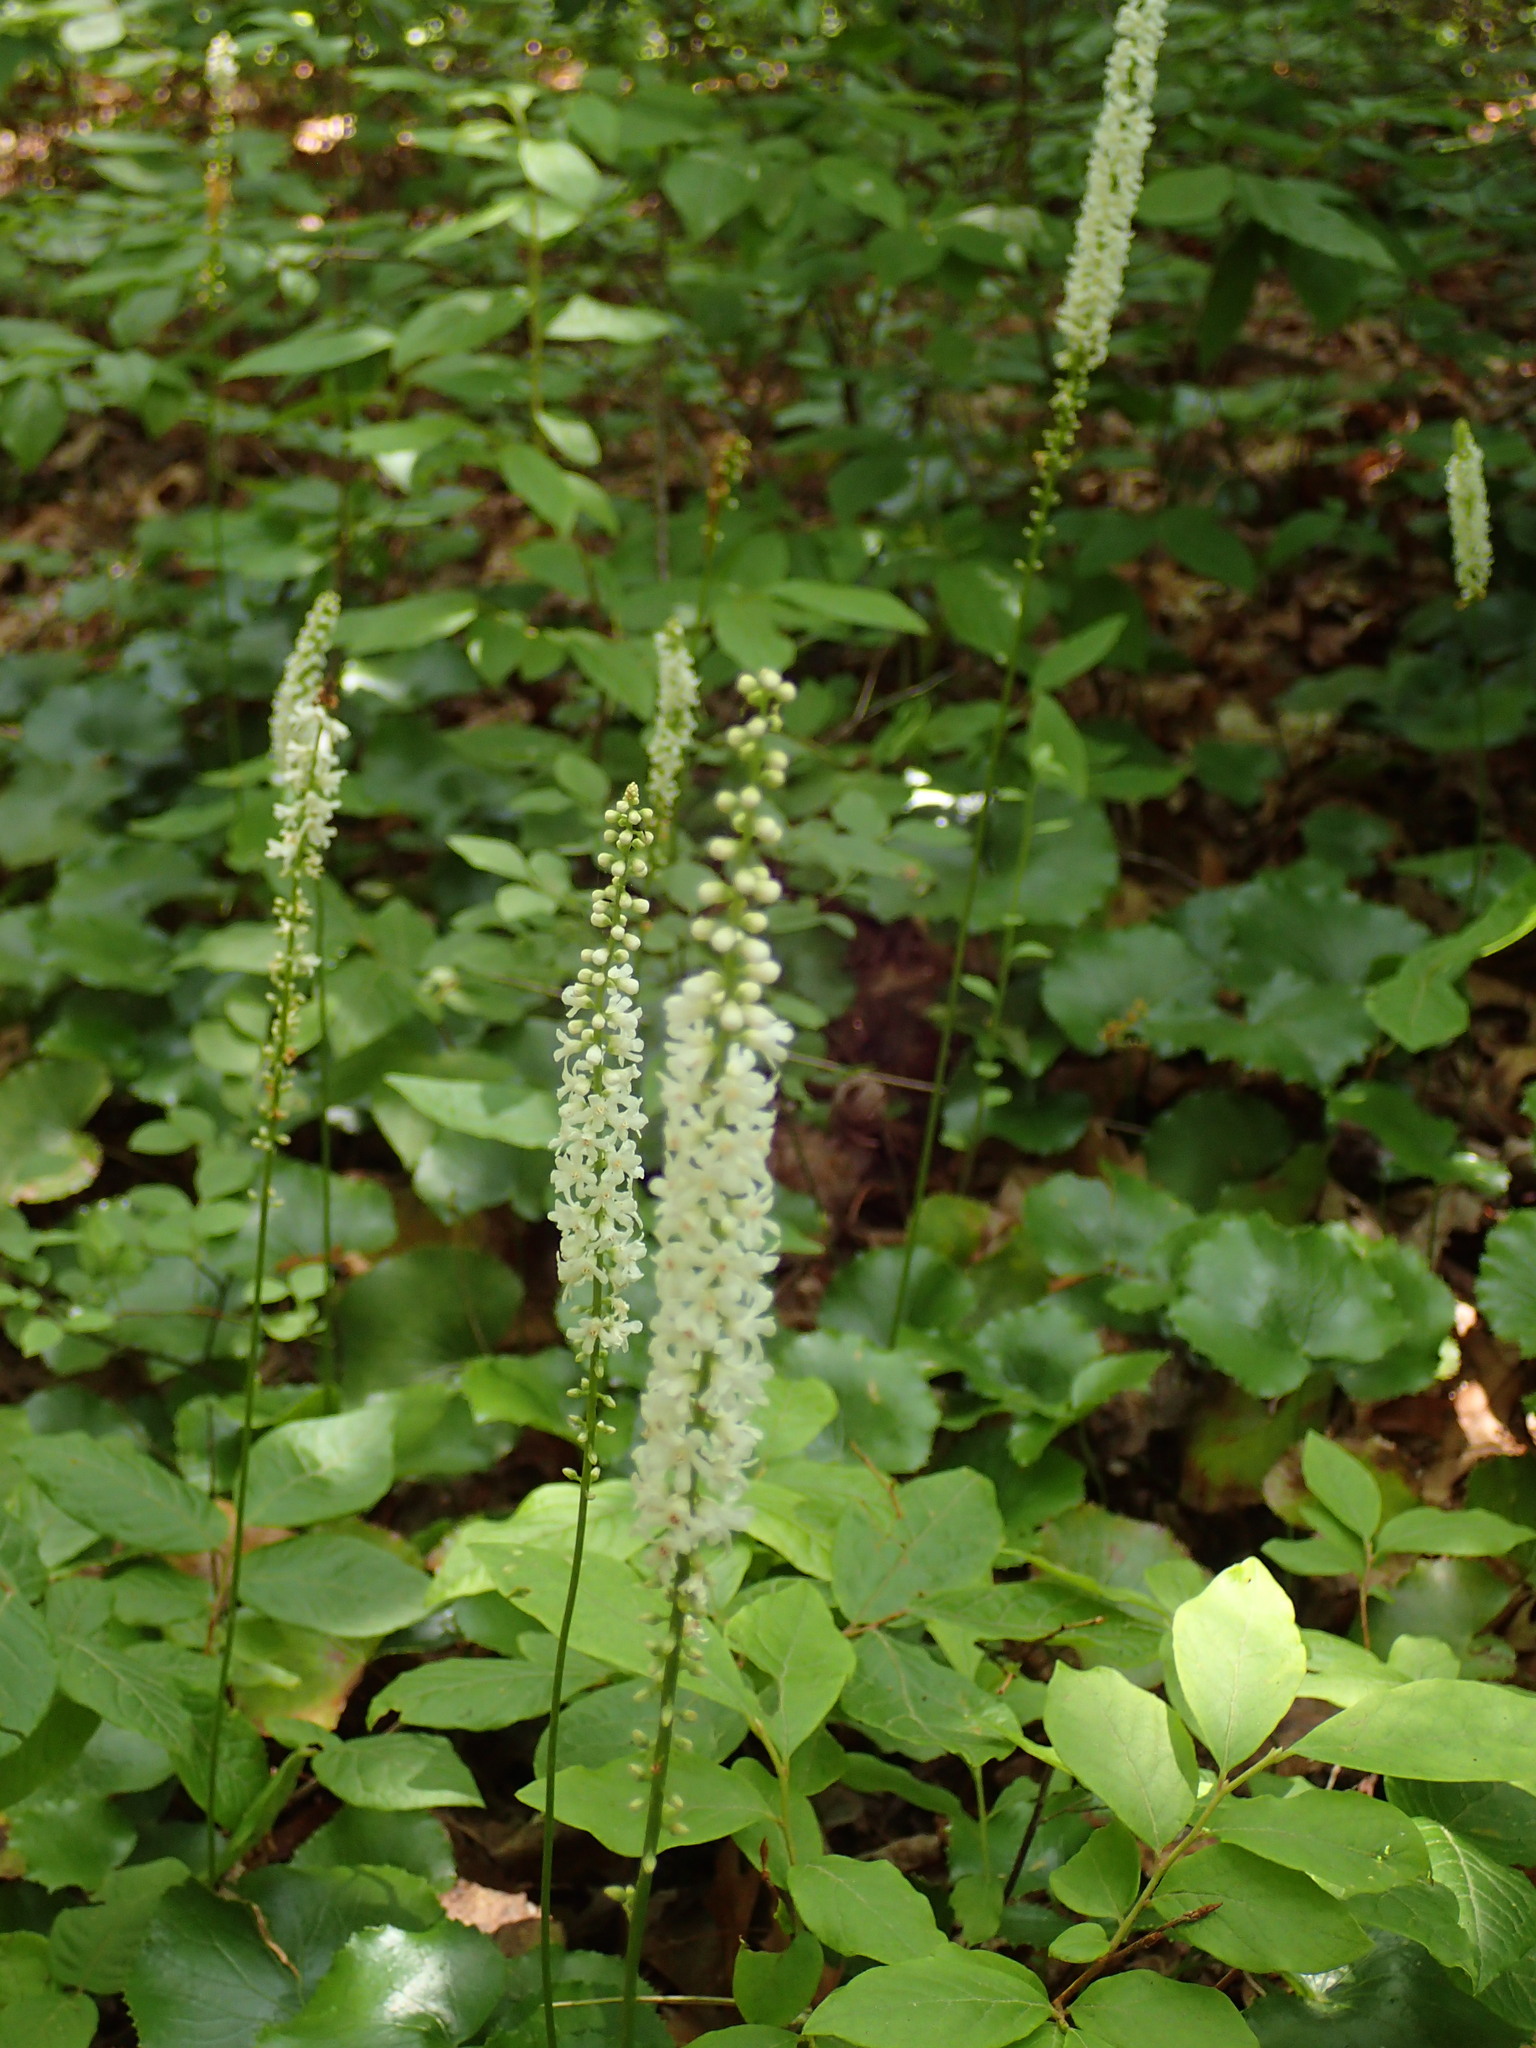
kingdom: Plantae
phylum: Tracheophyta
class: Magnoliopsida
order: Ericales
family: Diapensiaceae
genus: Galax
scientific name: Galax urceolata
